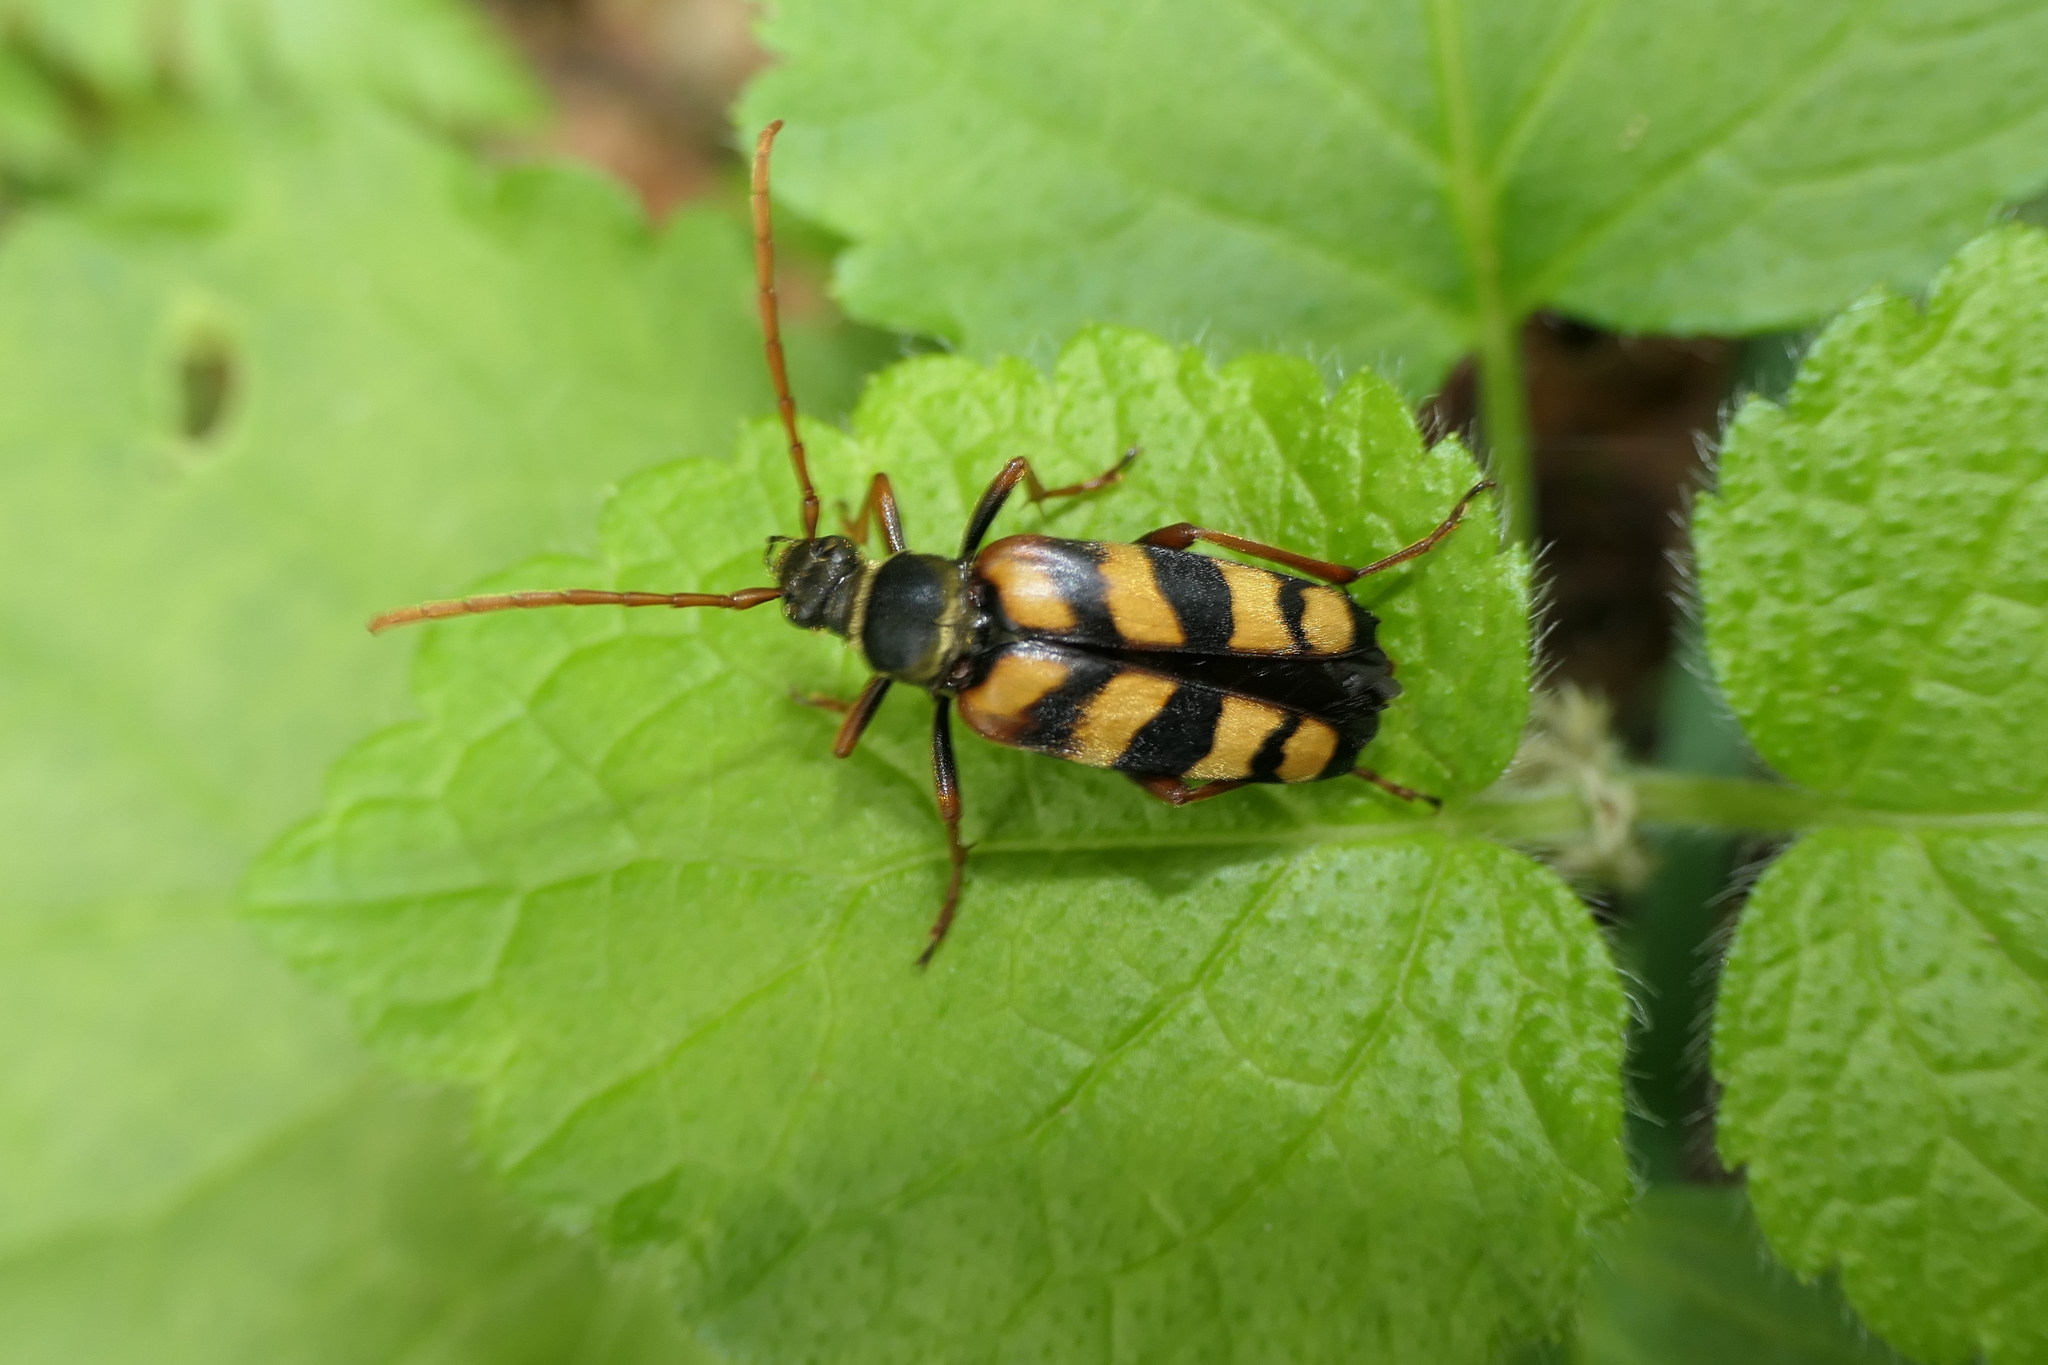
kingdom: Animalia
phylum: Arthropoda
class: Insecta
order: Coleoptera
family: Cerambycidae
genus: Leptura
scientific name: Leptura aurulenta
